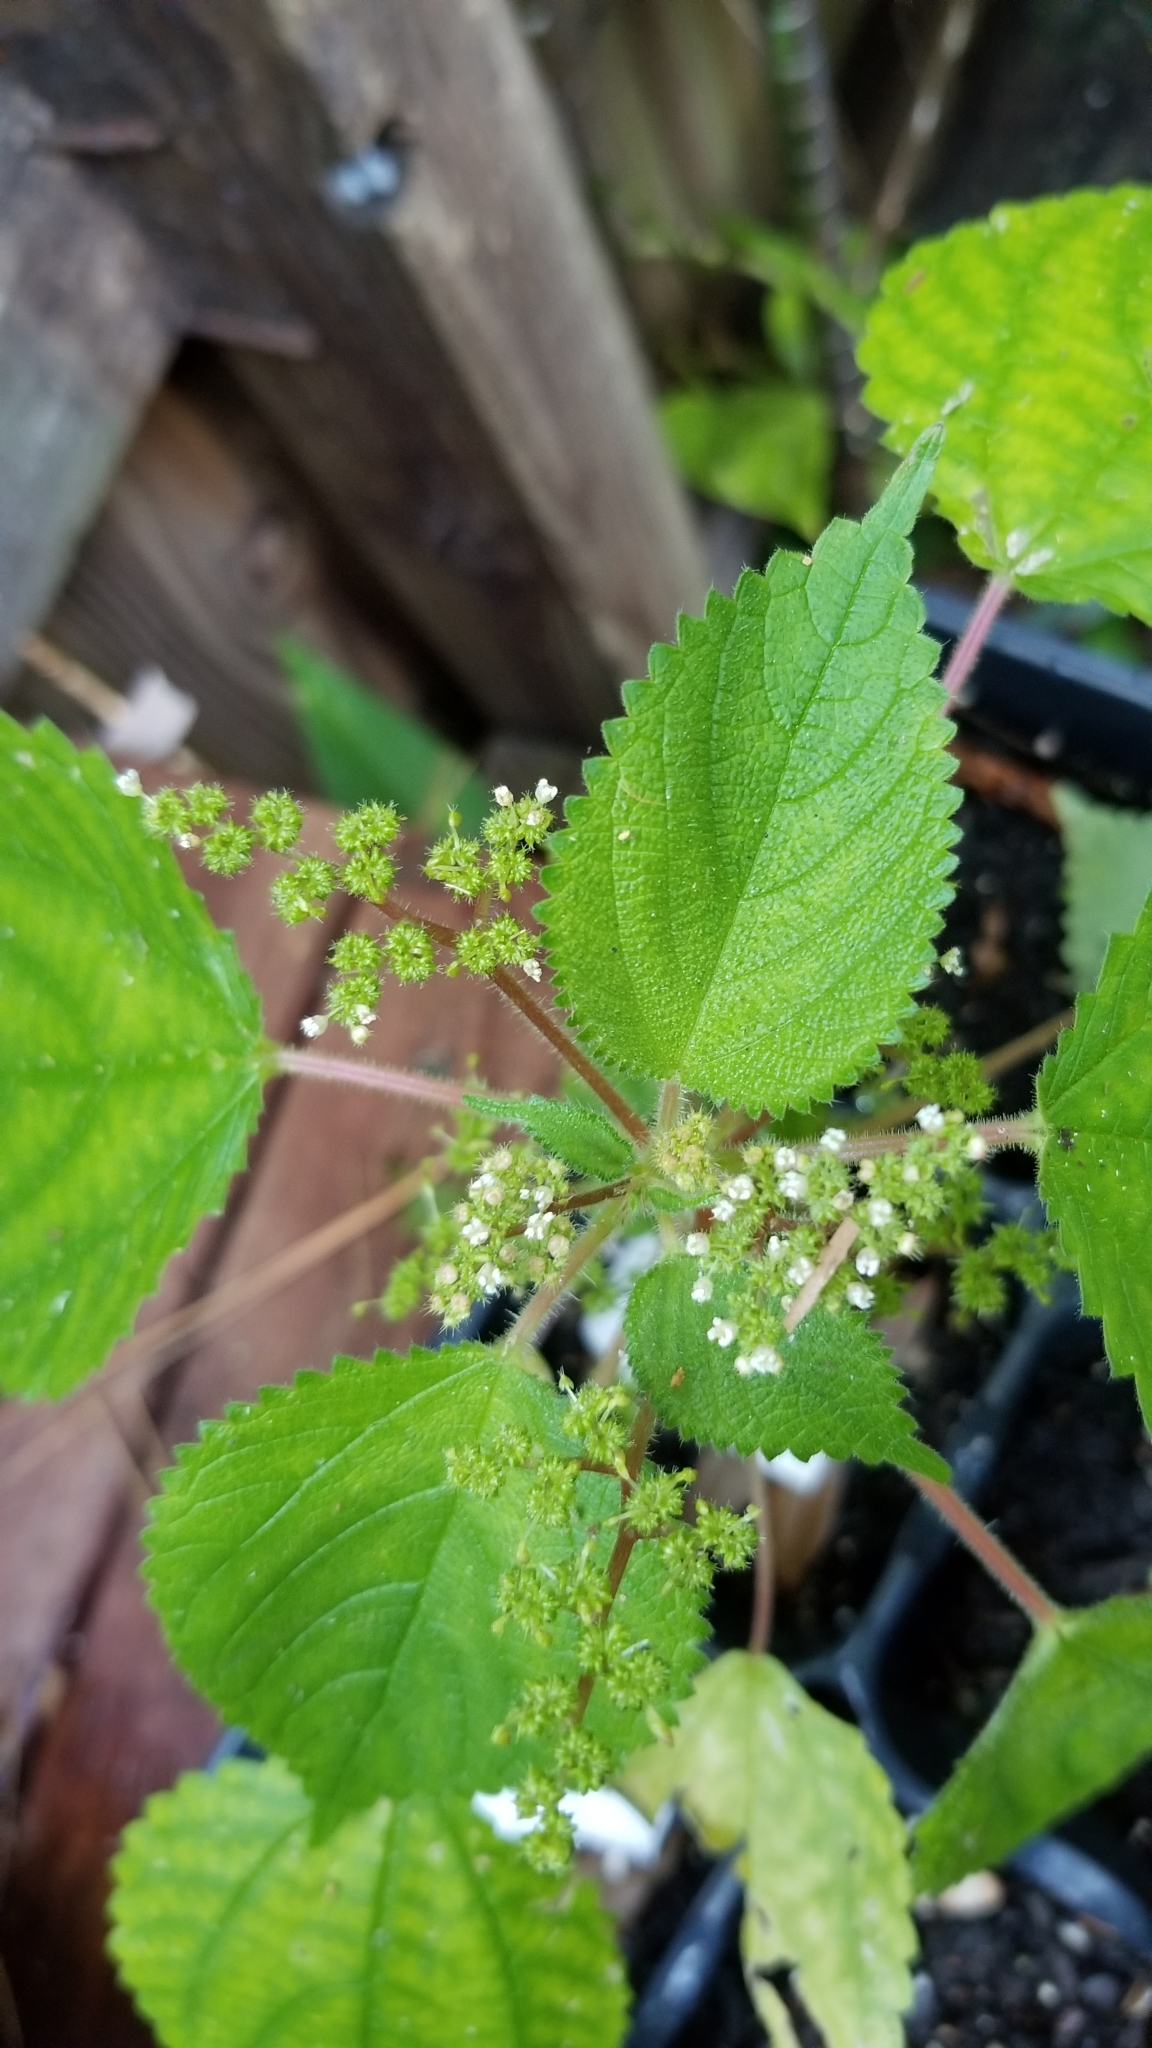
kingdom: Plantae
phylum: Tracheophyta
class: Magnoliopsida
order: Rosales
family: Urticaceae
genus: Laportea
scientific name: Laportea aestuans
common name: West indian woodnettle
